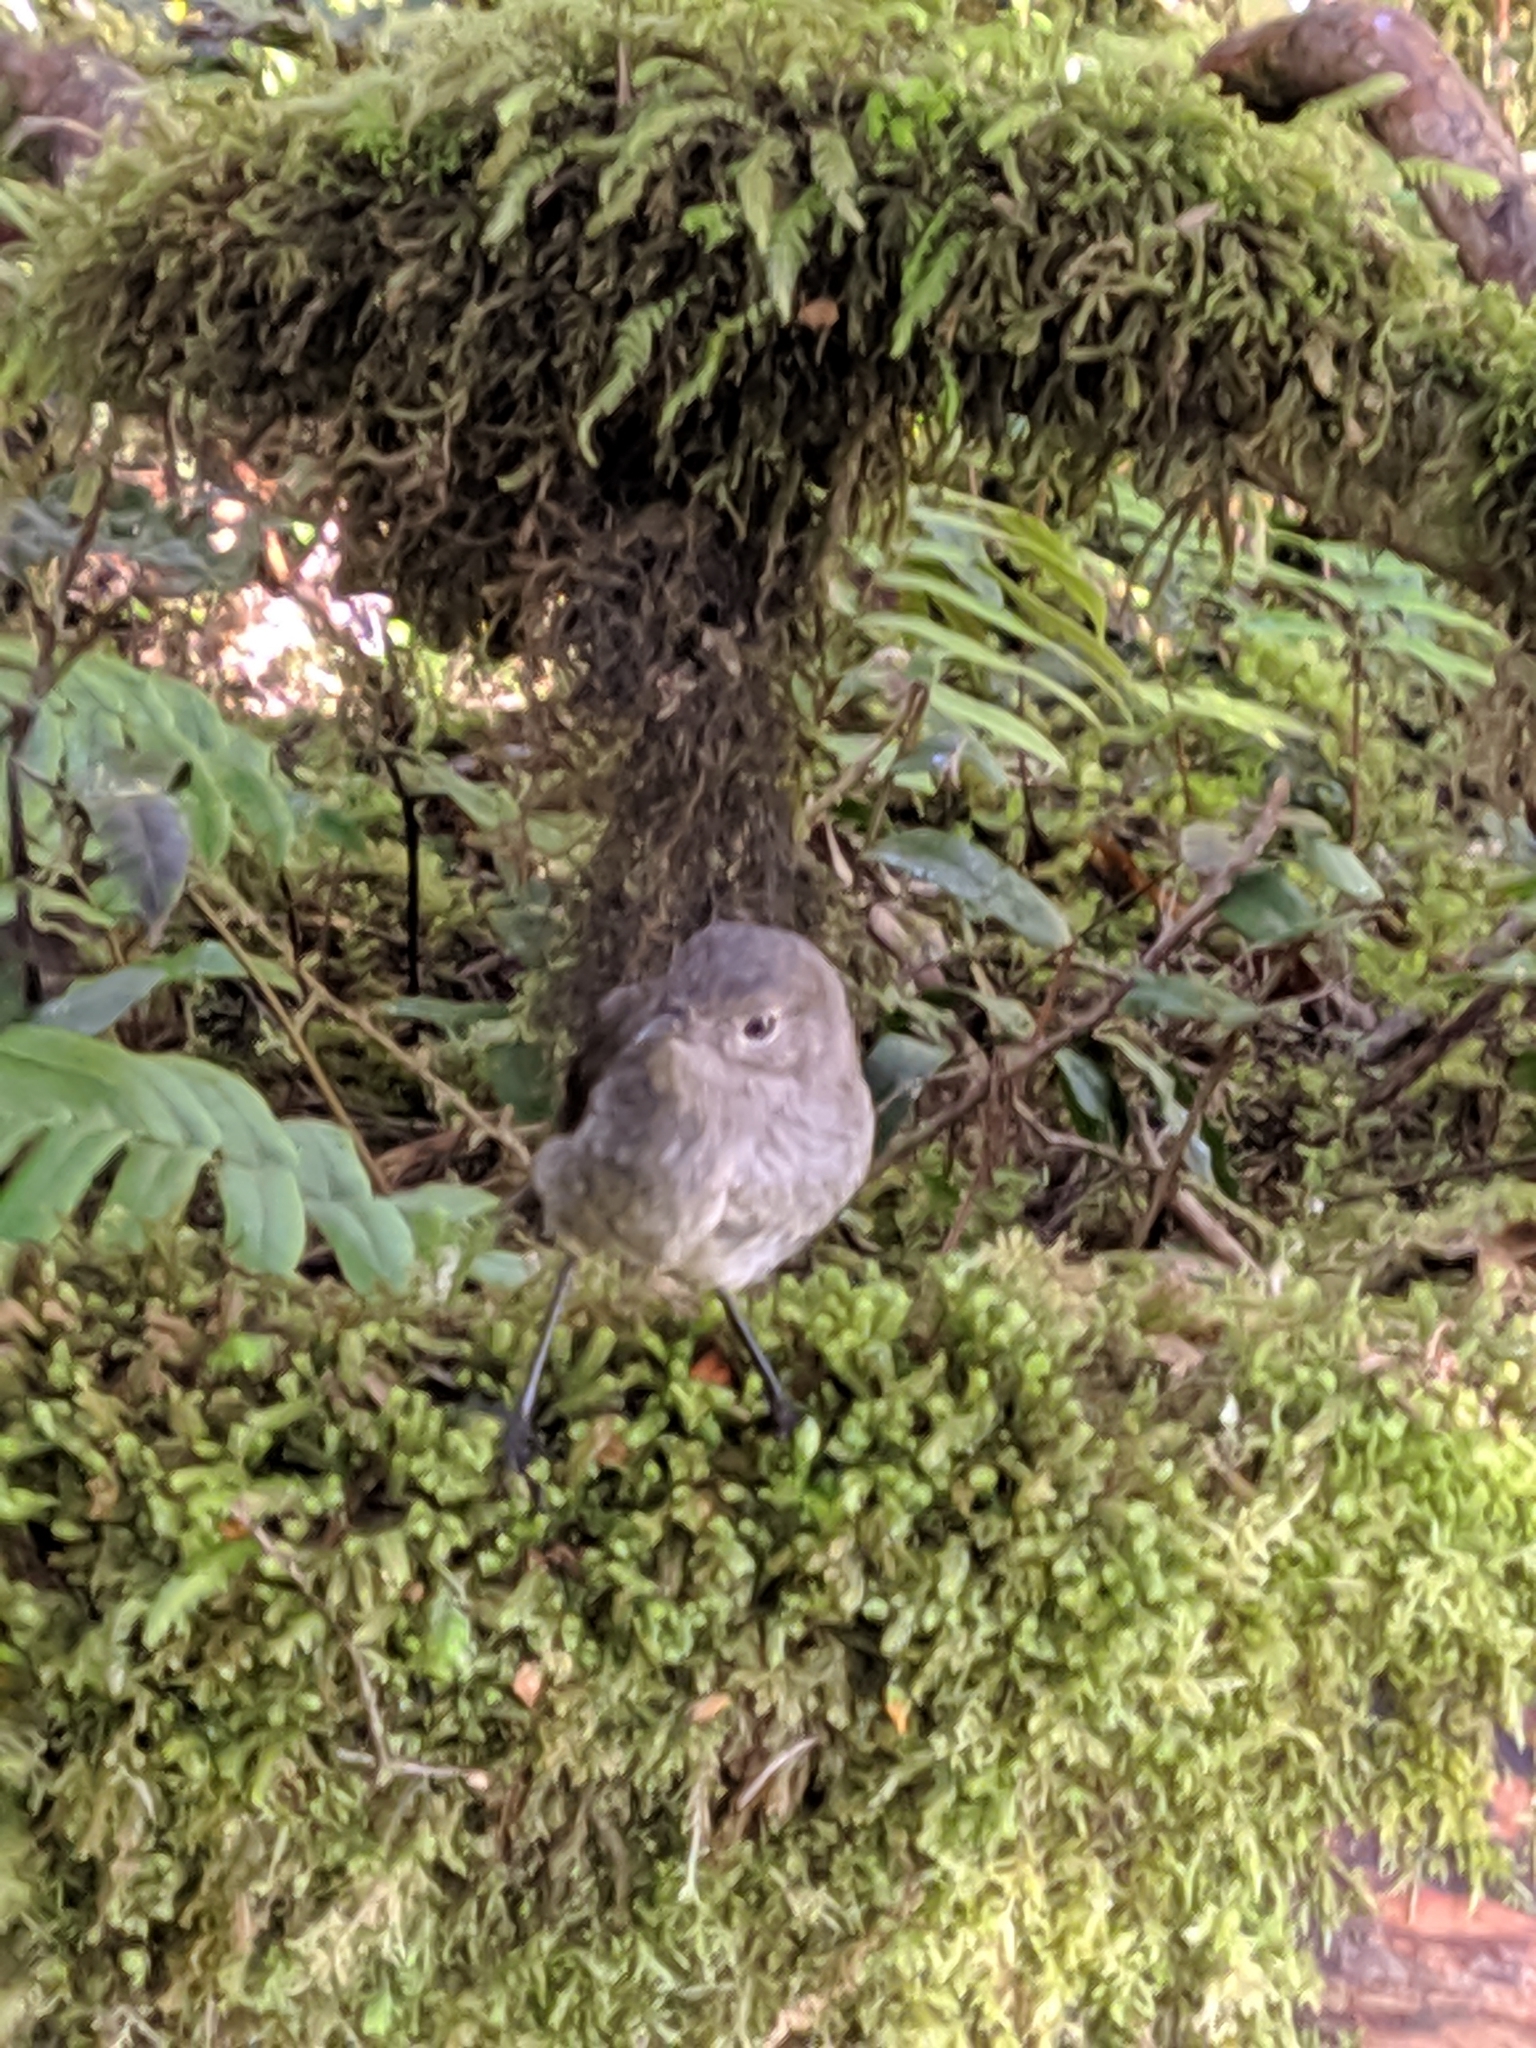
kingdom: Animalia
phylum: Chordata
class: Aves
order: Passeriformes
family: Petroicidae
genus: Petroica
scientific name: Petroica australis
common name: New zealand robin
